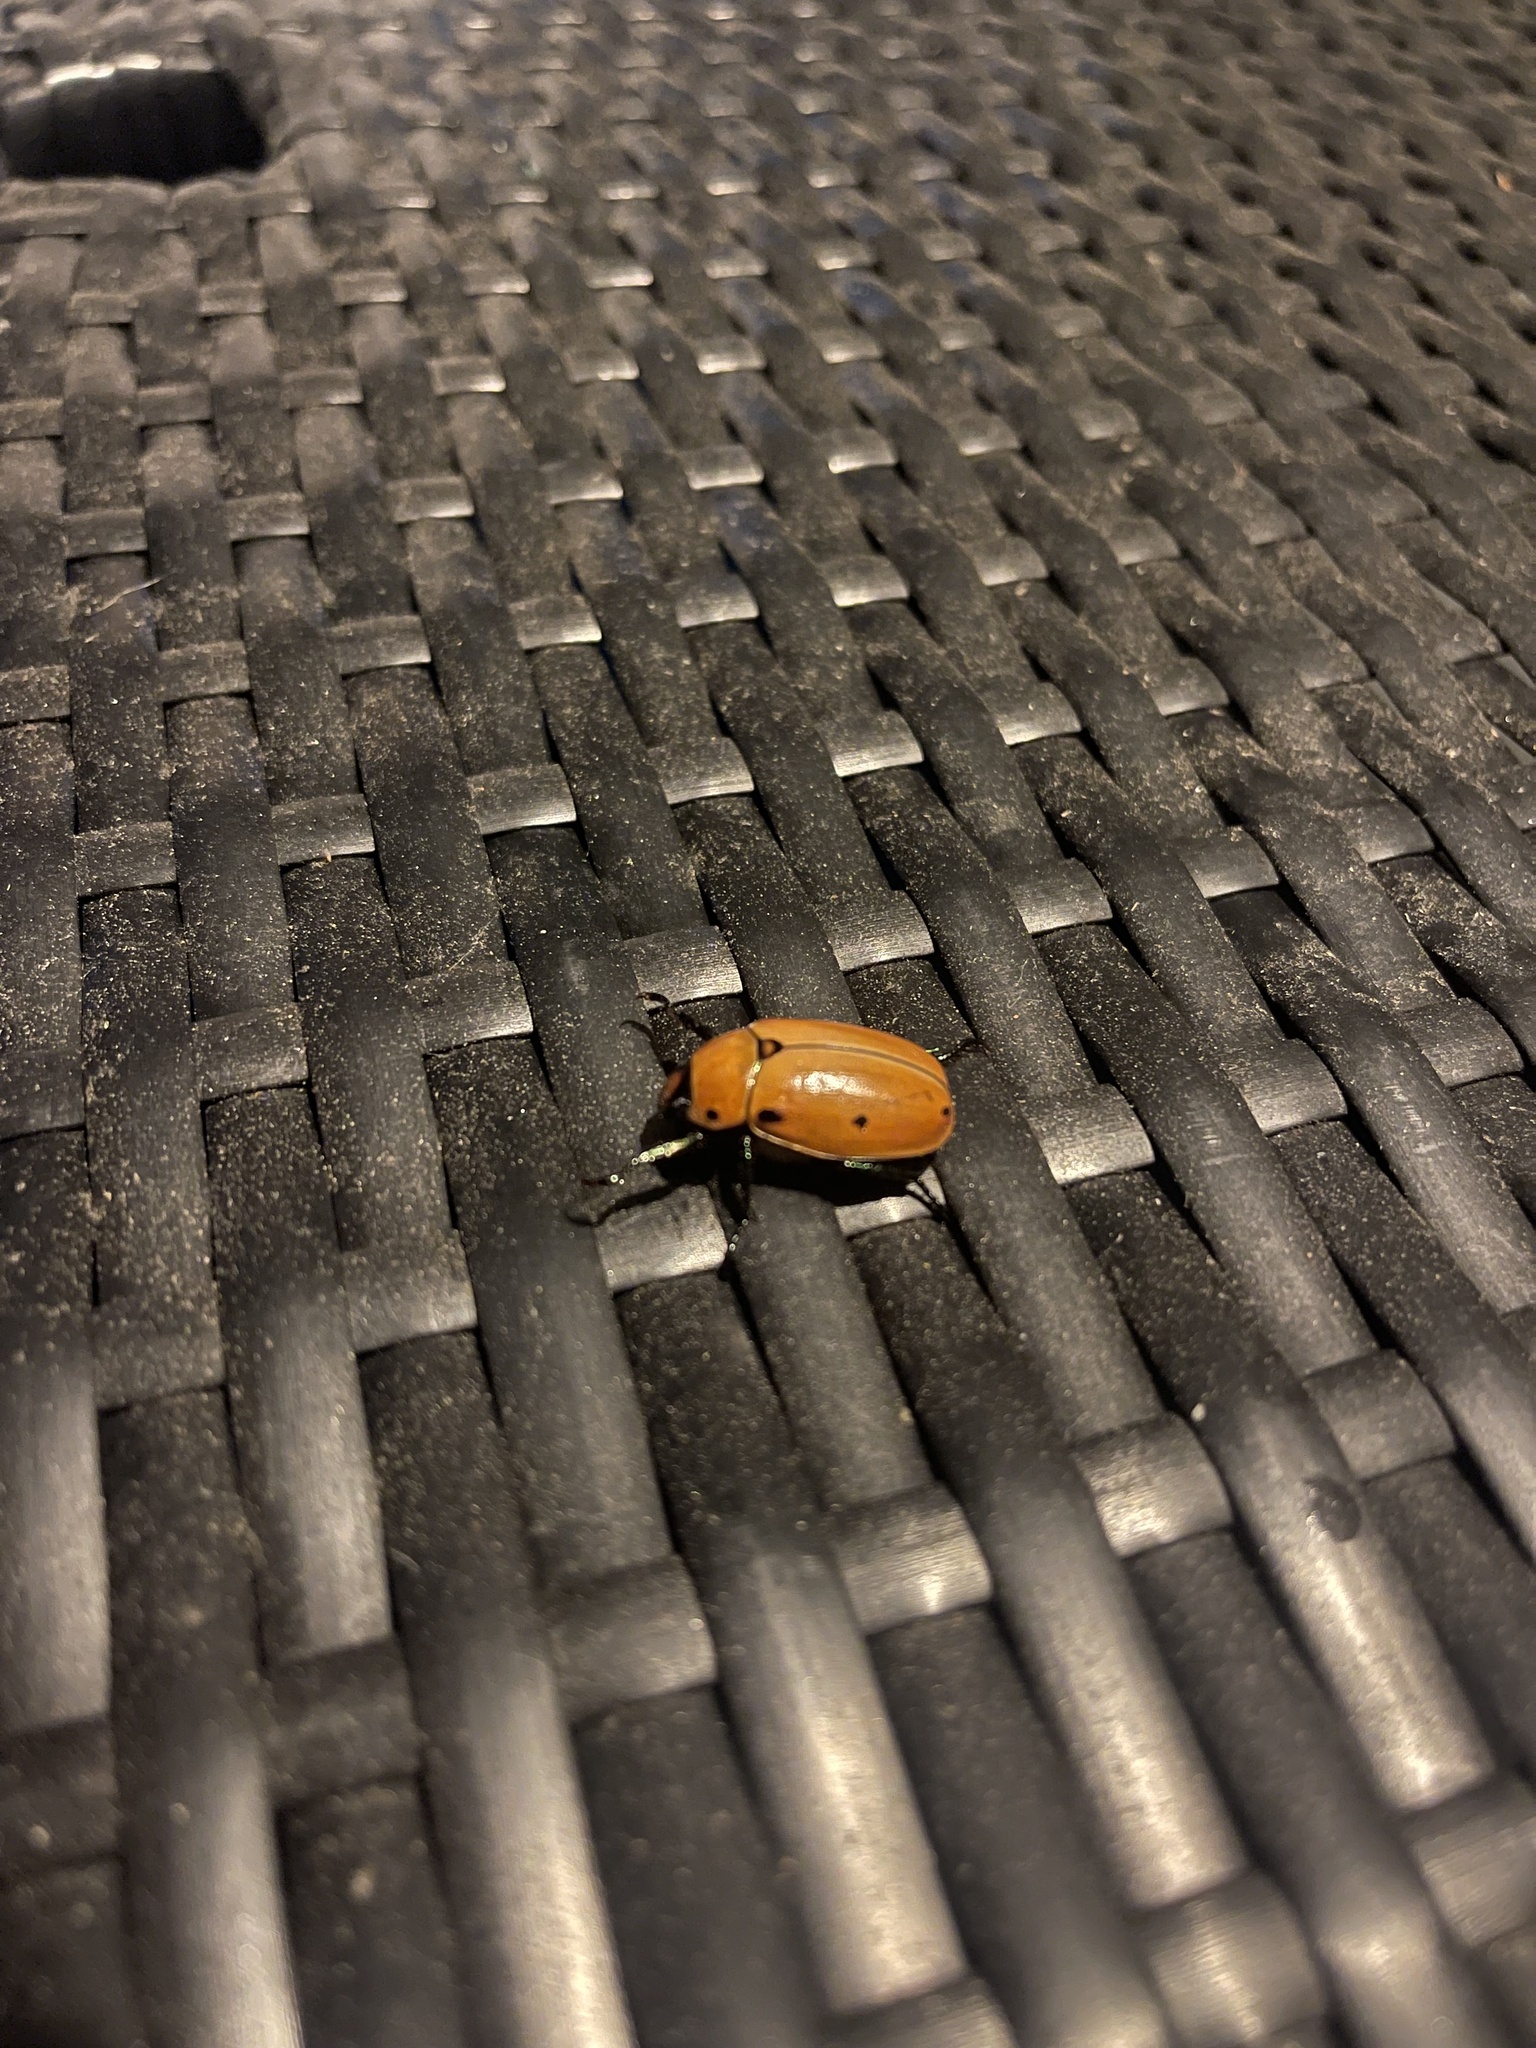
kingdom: Animalia
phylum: Arthropoda
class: Insecta
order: Coleoptera
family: Scarabaeidae
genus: Pelidnota
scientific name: Pelidnota punctata
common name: Grapevine beetle
